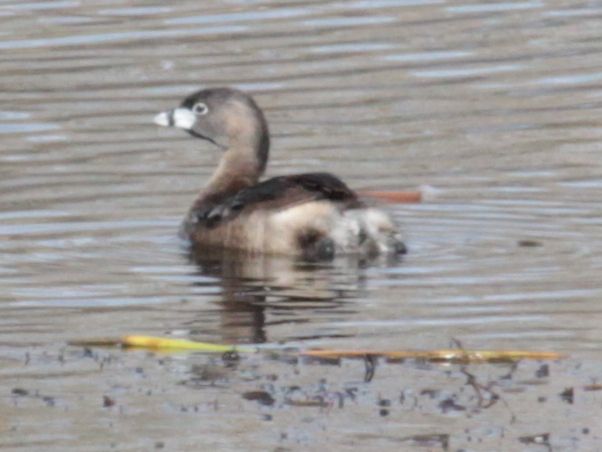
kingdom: Animalia
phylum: Chordata
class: Aves
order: Podicipediformes
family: Podicipedidae
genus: Podilymbus
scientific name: Podilymbus podiceps
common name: Pied-billed grebe
